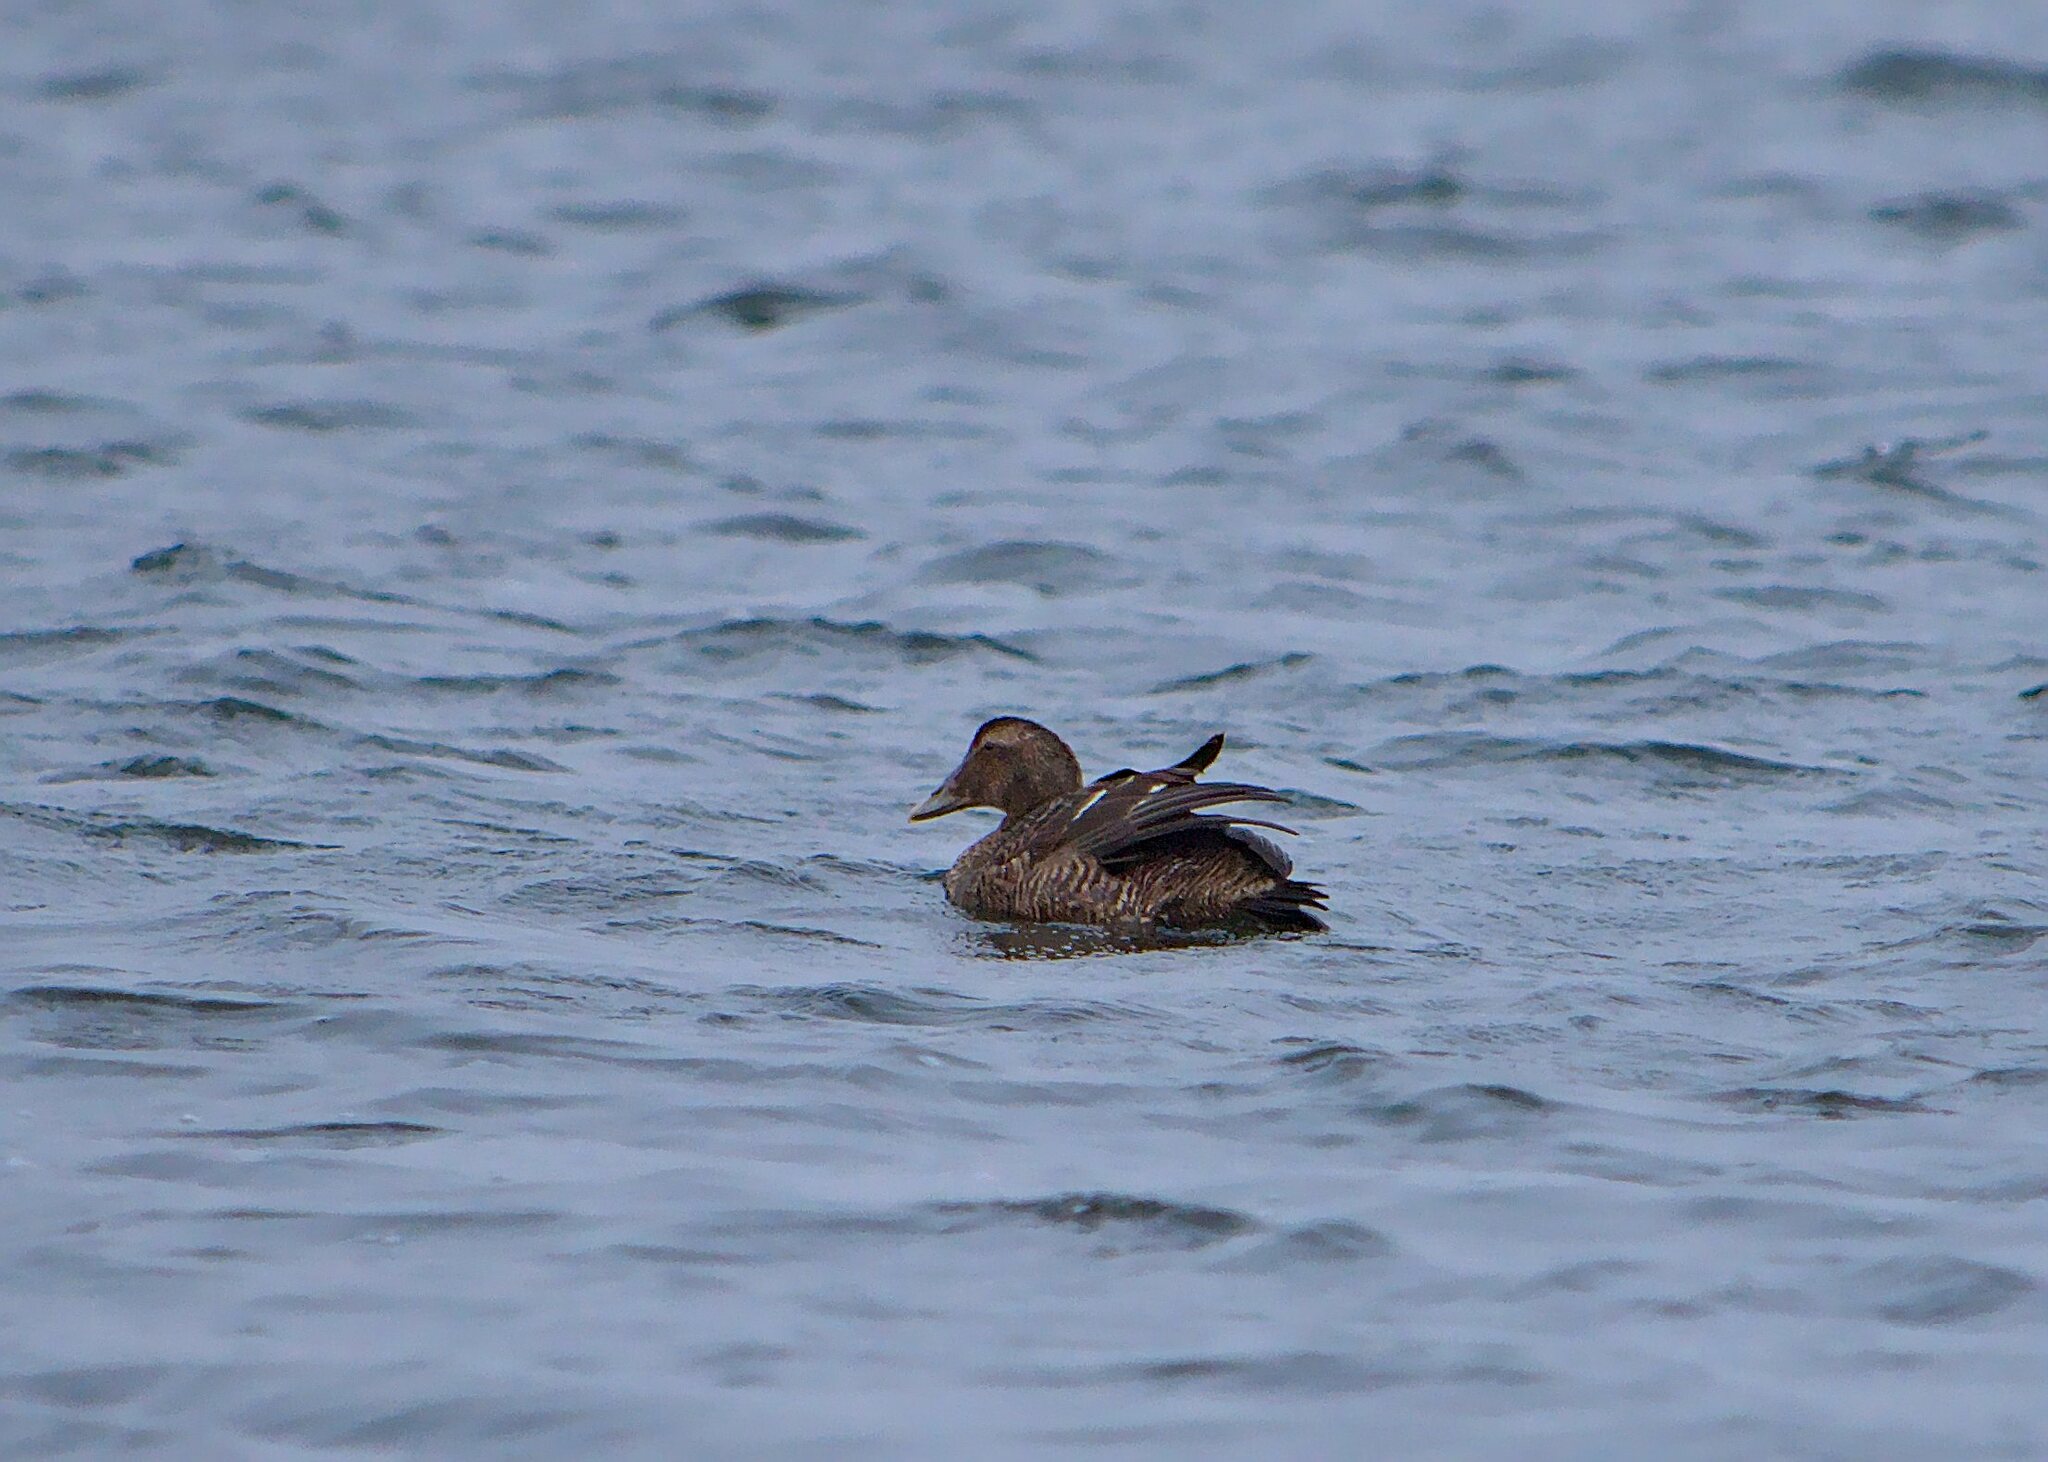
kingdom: Animalia
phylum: Chordata
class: Aves
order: Anseriformes
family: Anatidae
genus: Somateria
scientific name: Somateria mollissima
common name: Common eider
